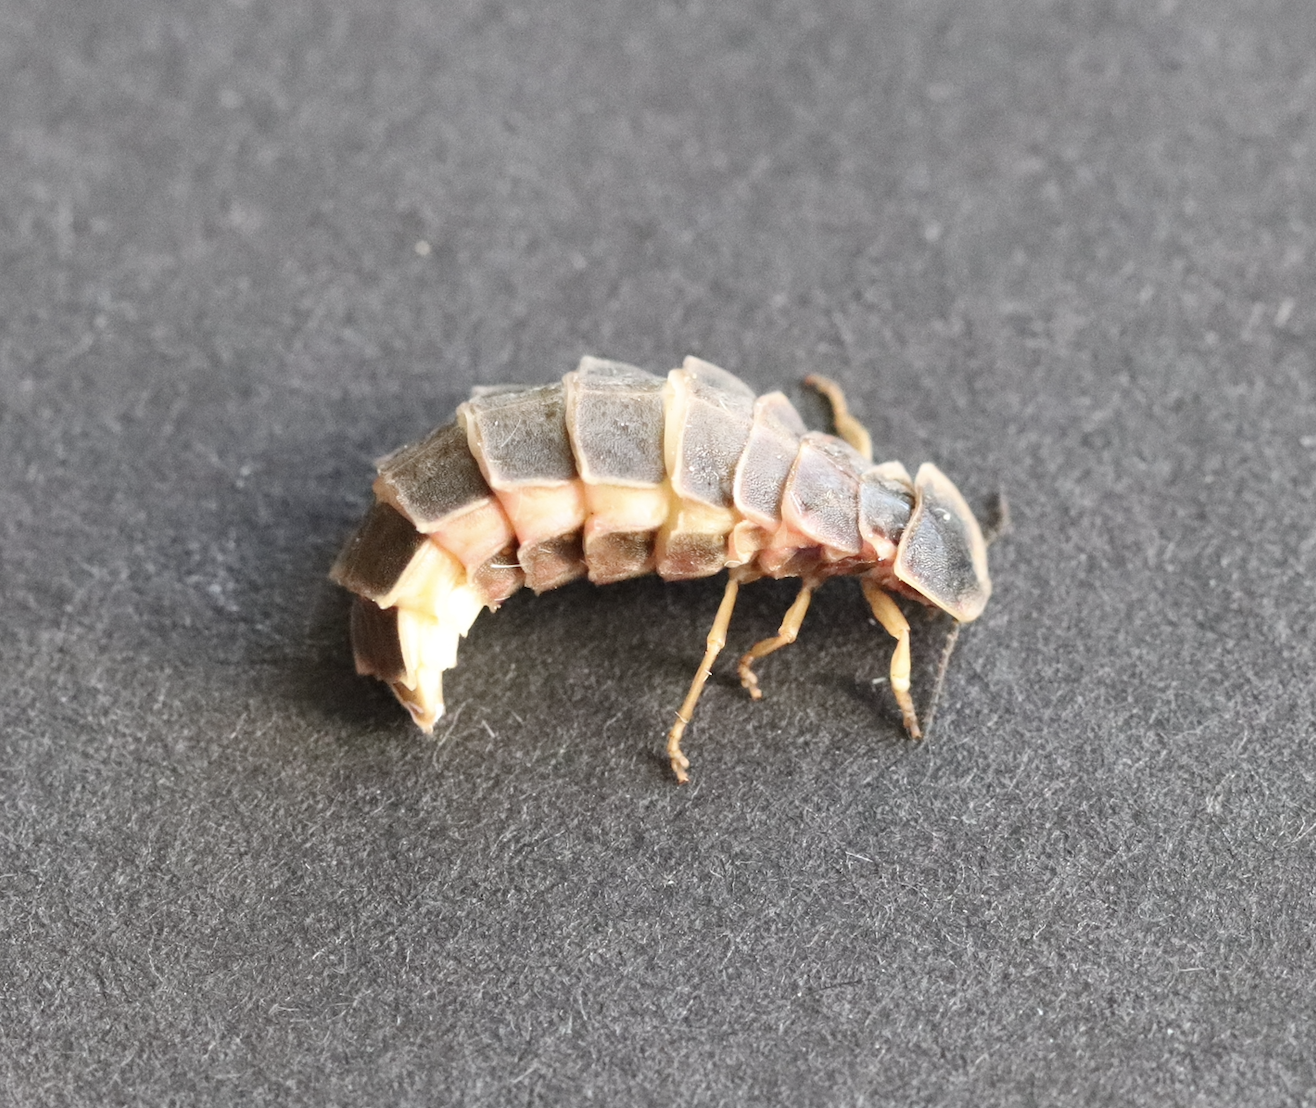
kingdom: Animalia
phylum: Arthropoda
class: Insecta
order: Coleoptera
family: Lampyridae
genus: Lampyris
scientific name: Lampyris noctiluca
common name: Glow-worm
